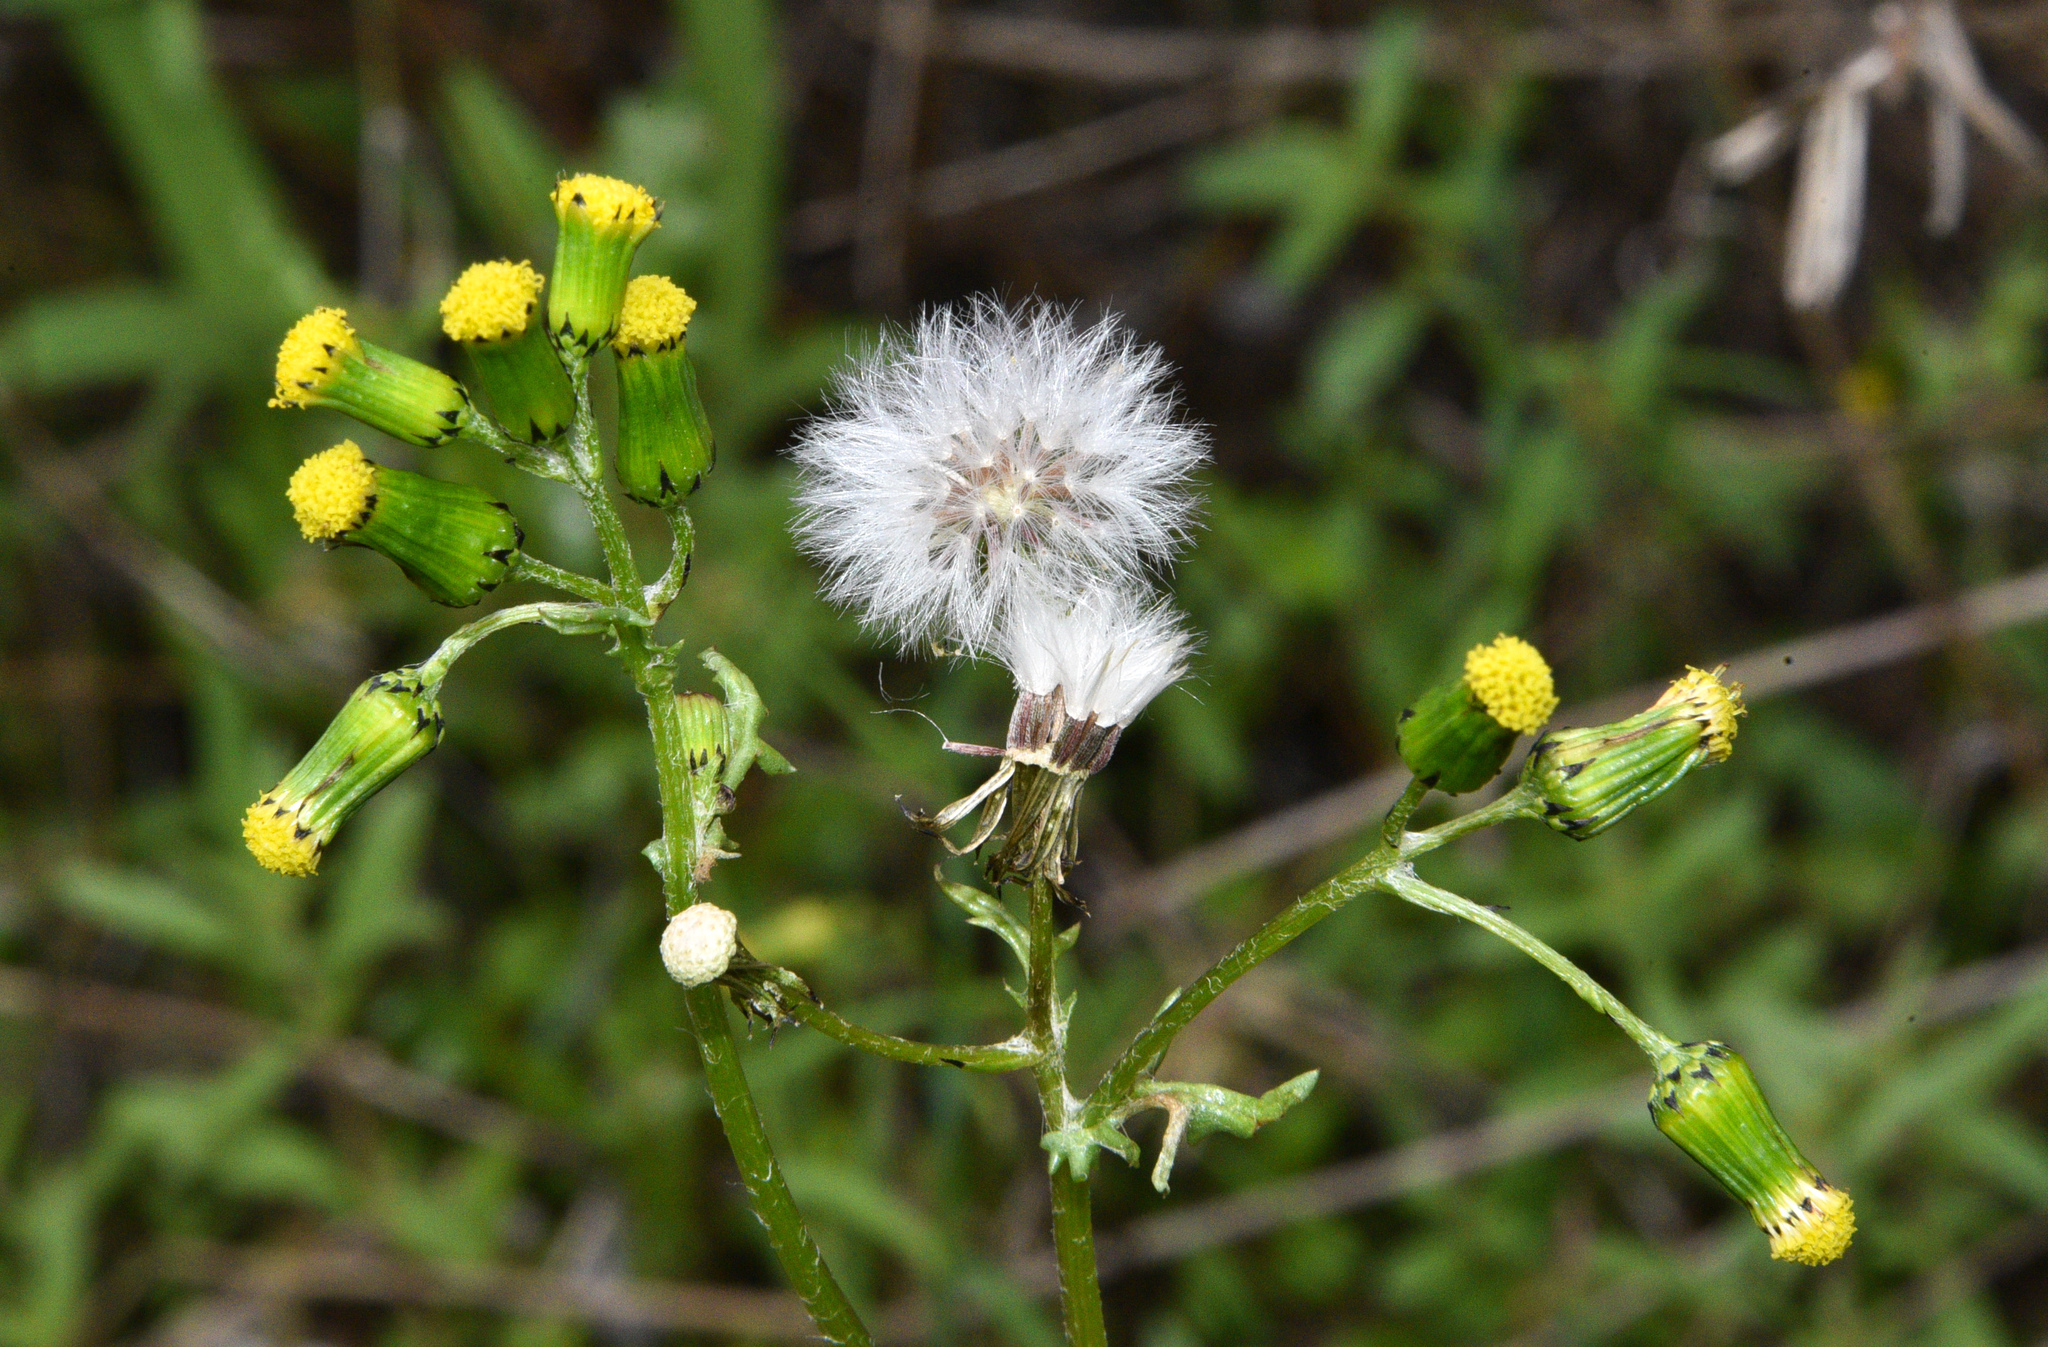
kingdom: Plantae
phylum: Tracheophyta
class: Magnoliopsida
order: Asterales
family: Asteraceae
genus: Senecio
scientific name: Senecio vulgaris
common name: Old-man-in-the-spring
